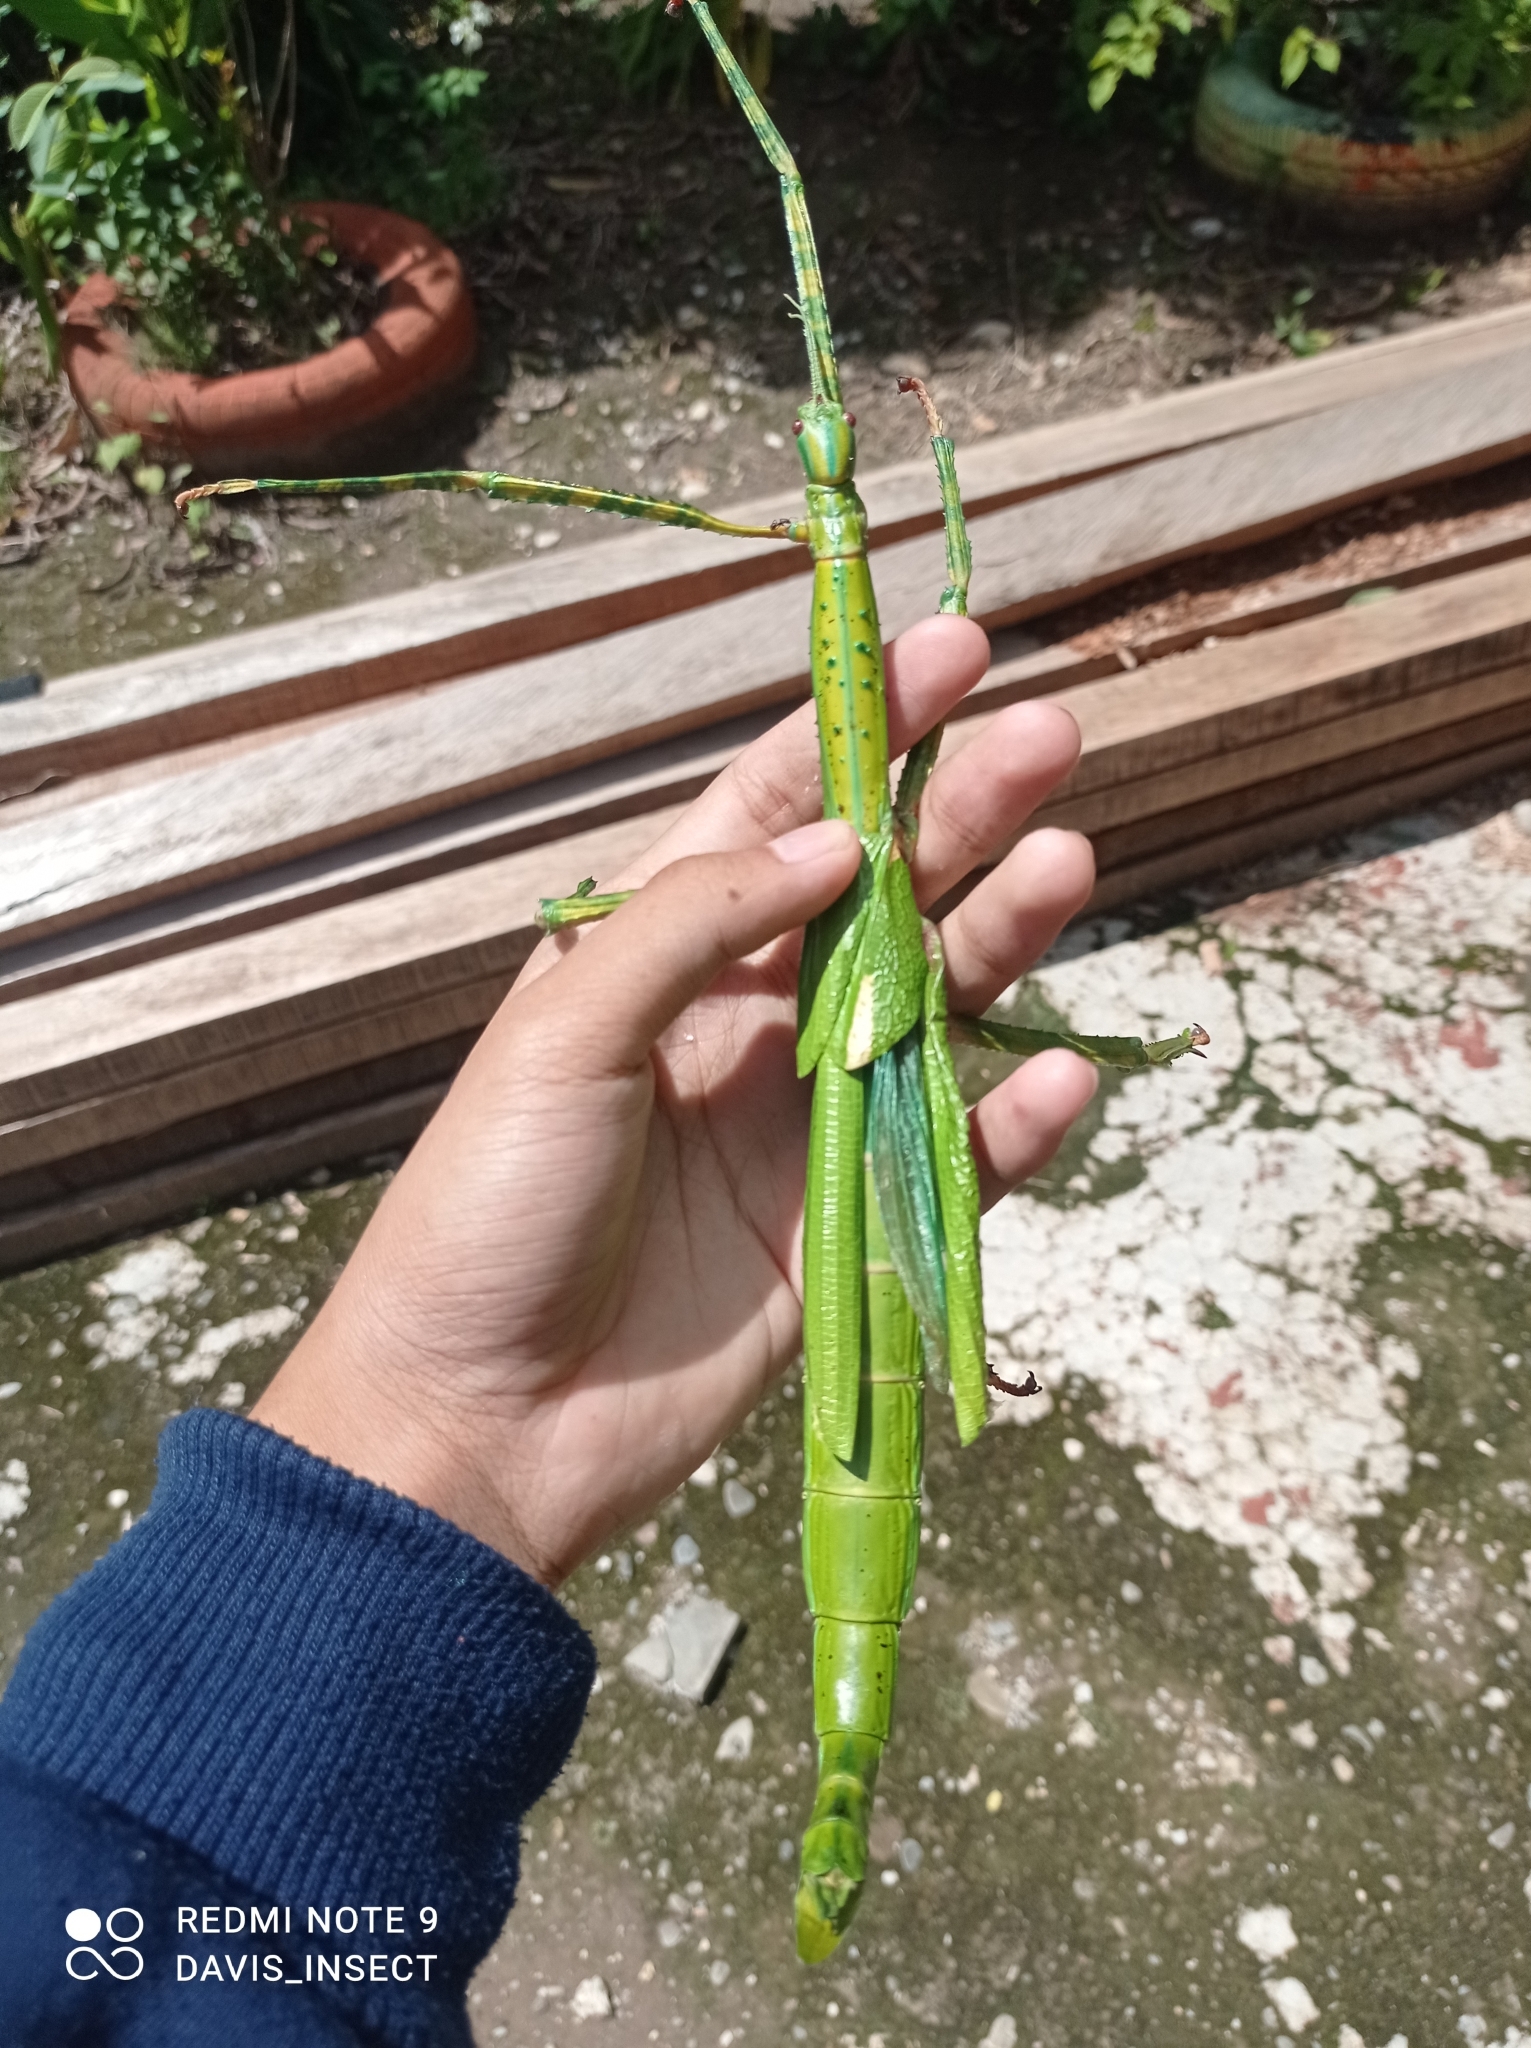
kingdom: Animalia
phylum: Arthropoda
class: Insecta
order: Phasmida
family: Phasmatidae
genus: Eurycnema
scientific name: Eurycnema versirubra
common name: Red-winged green giant stick-insect
